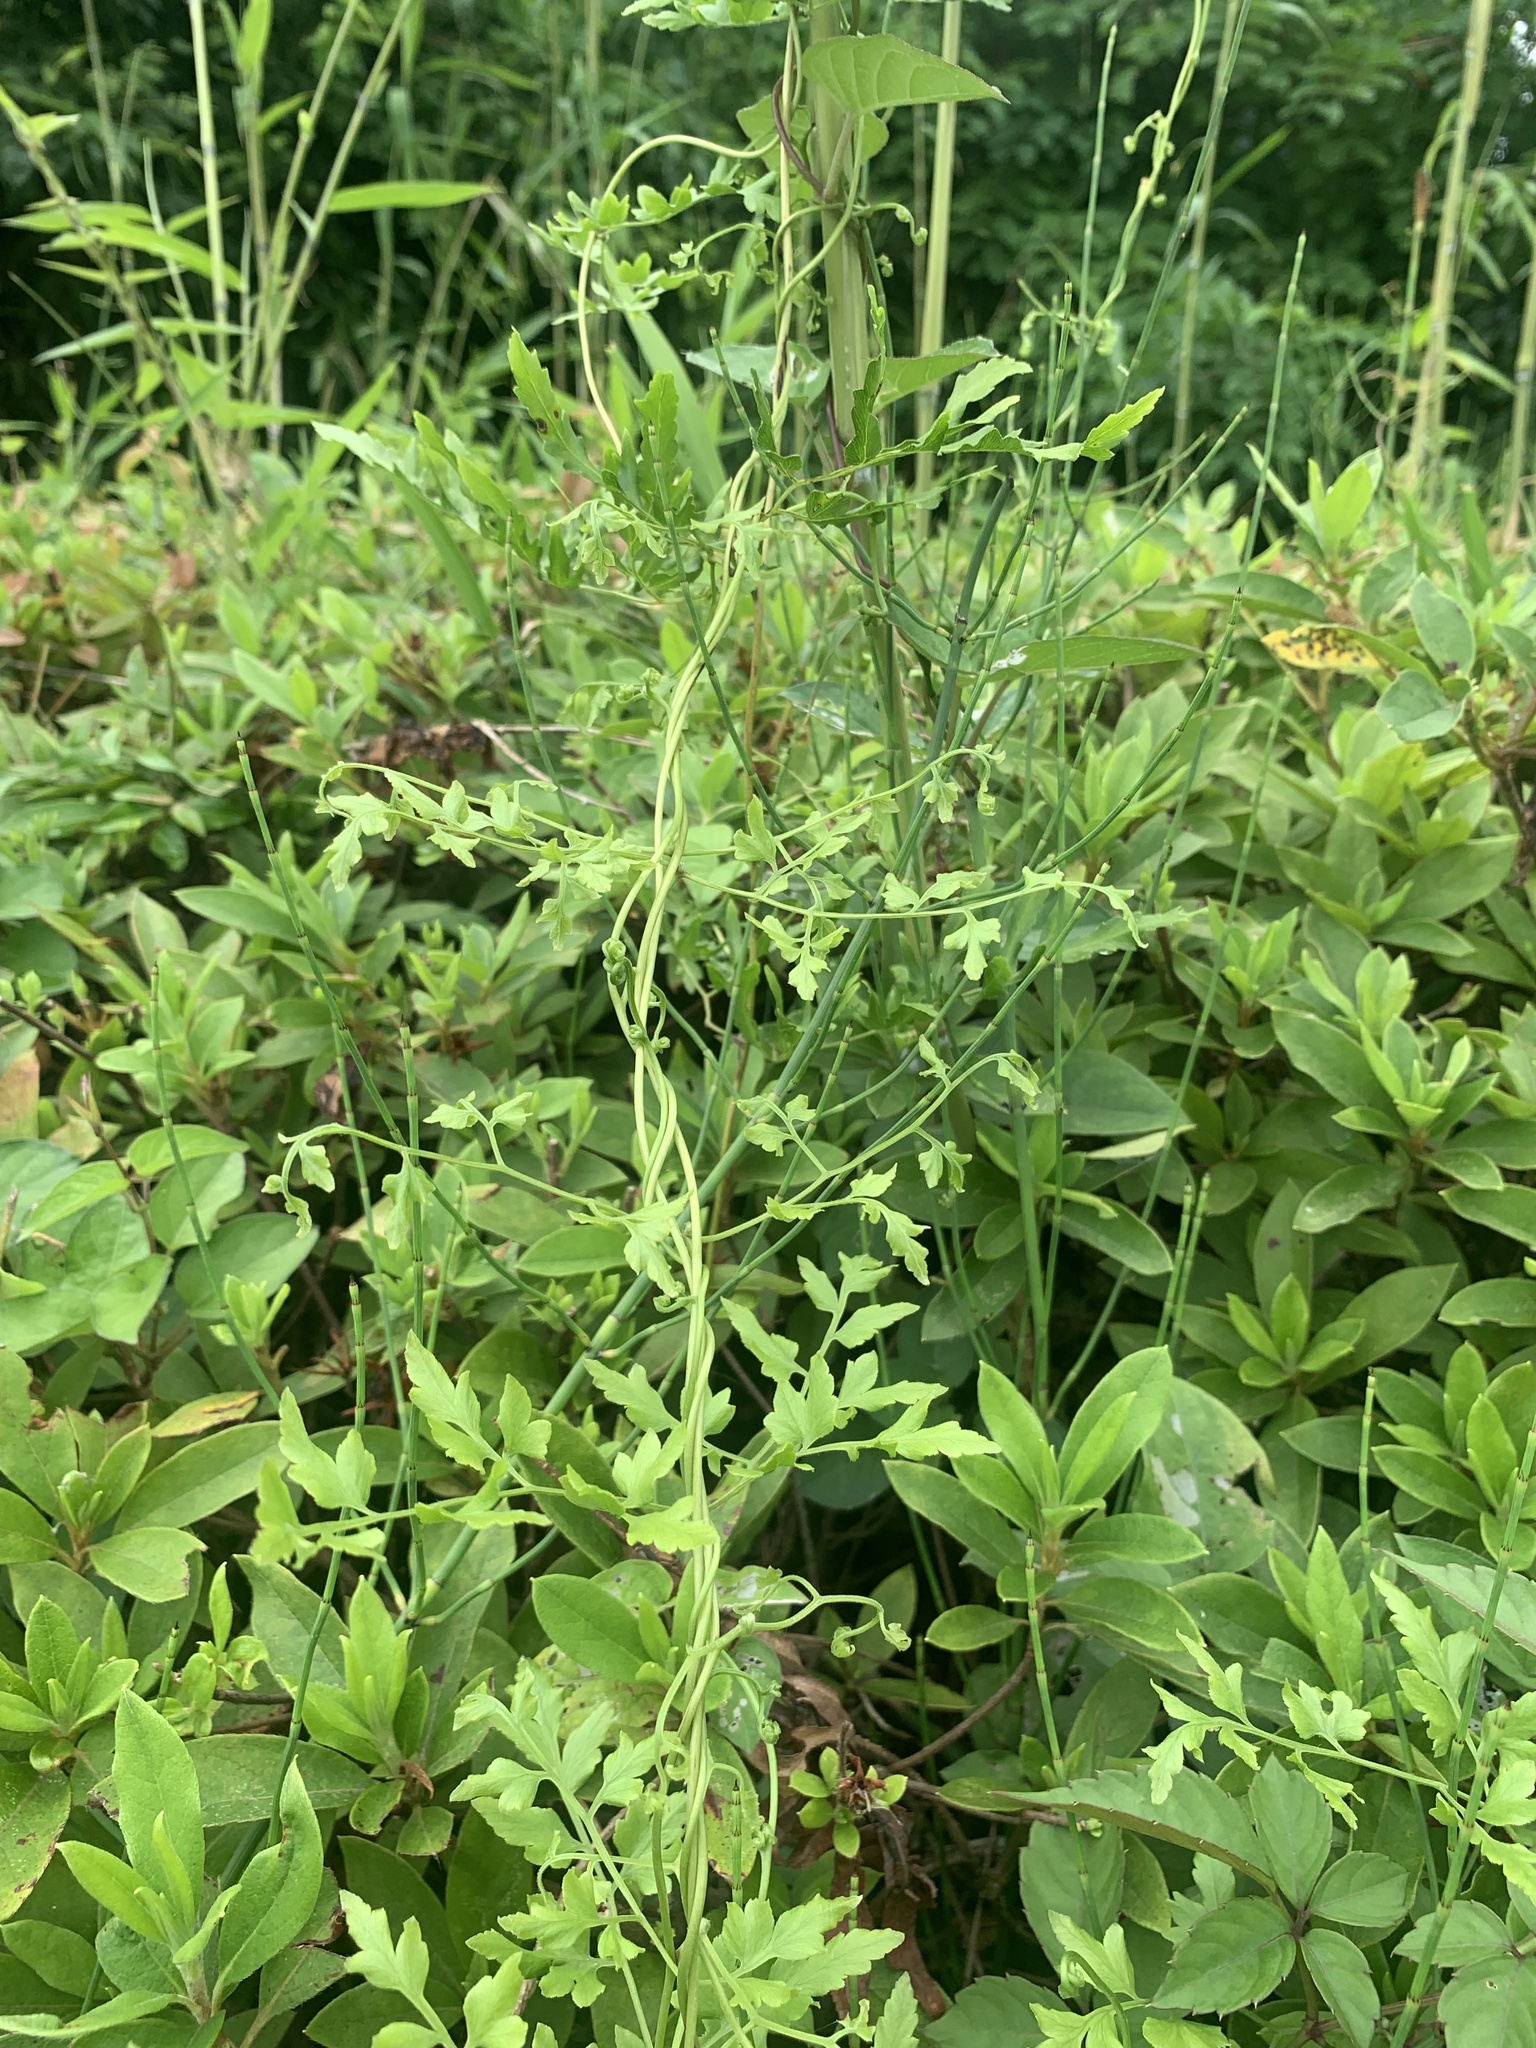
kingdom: Plantae
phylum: Tracheophyta
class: Polypodiopsida
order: Schizaeales
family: Lygodiaceae
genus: Lygodium
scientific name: Lygodium japonicum
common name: Japanese climbing fern
